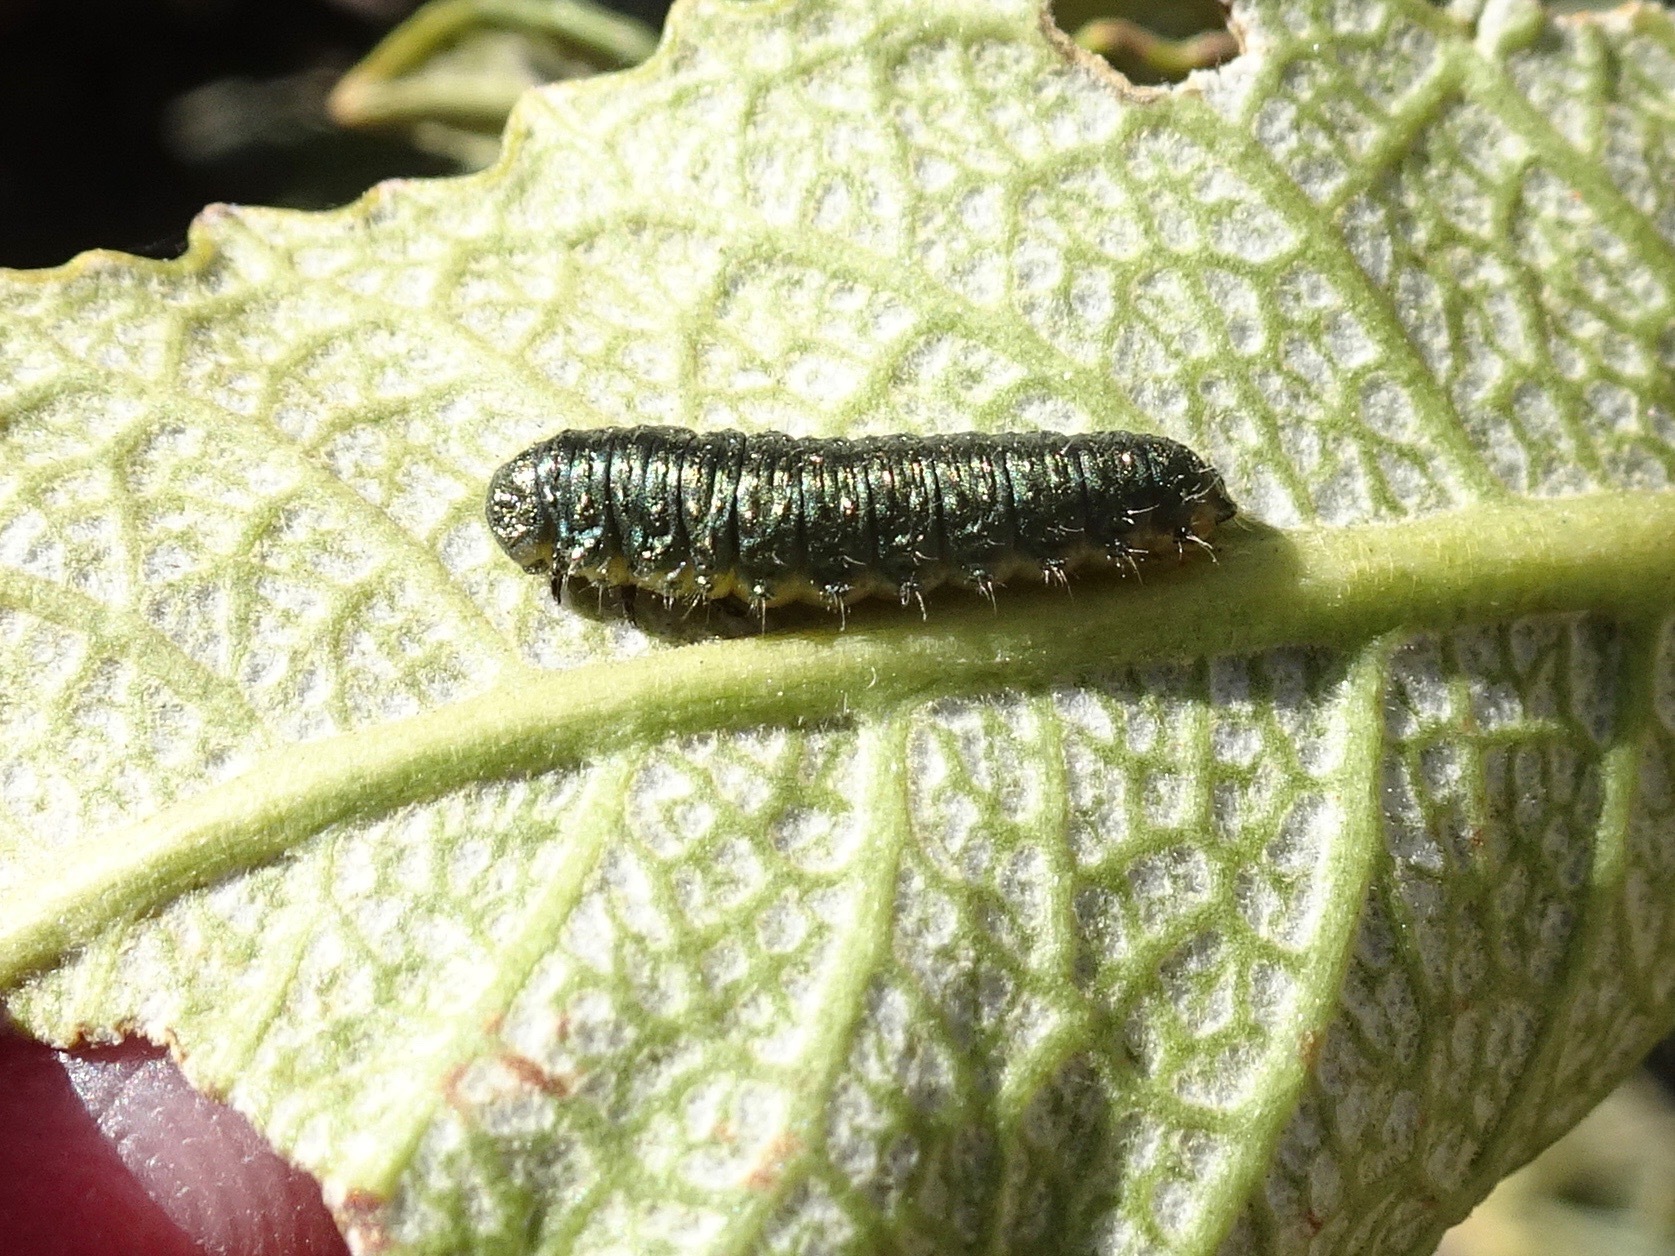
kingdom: Animalia
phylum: Arthropoda
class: Insecta
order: Coleoptera
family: Chrysomelidae
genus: Trirhabda
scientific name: Trirhabda eriodictyonis
